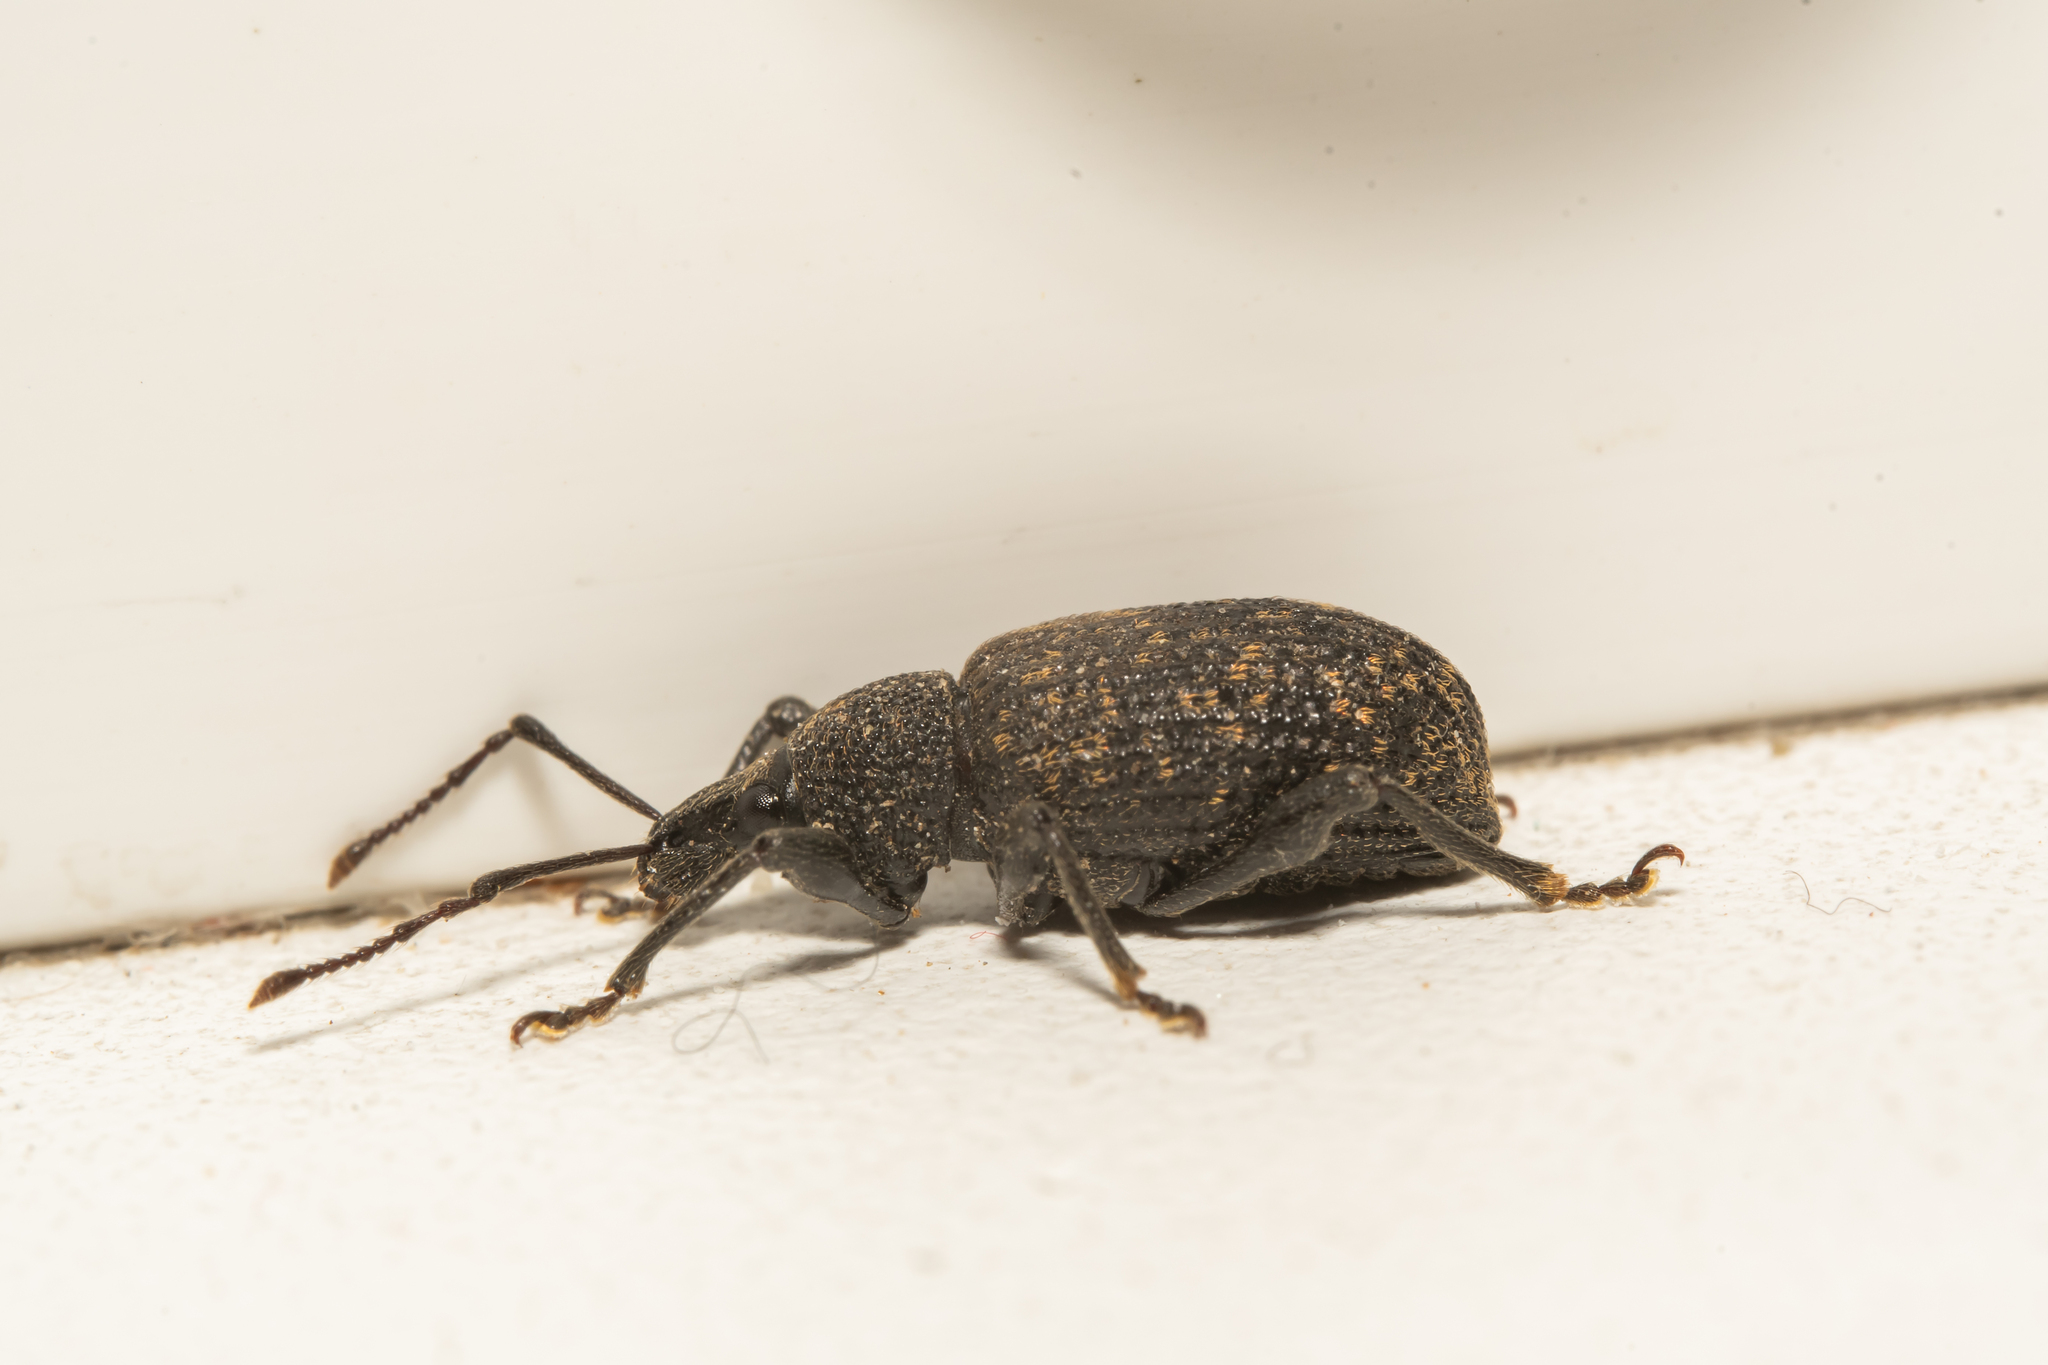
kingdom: Animalia
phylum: Arthropoda
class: Insecta
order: Coleoptera
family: Curculionidae
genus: Otiorhynchus
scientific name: Otiorhynchus sulcatus
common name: Black vine weevil
